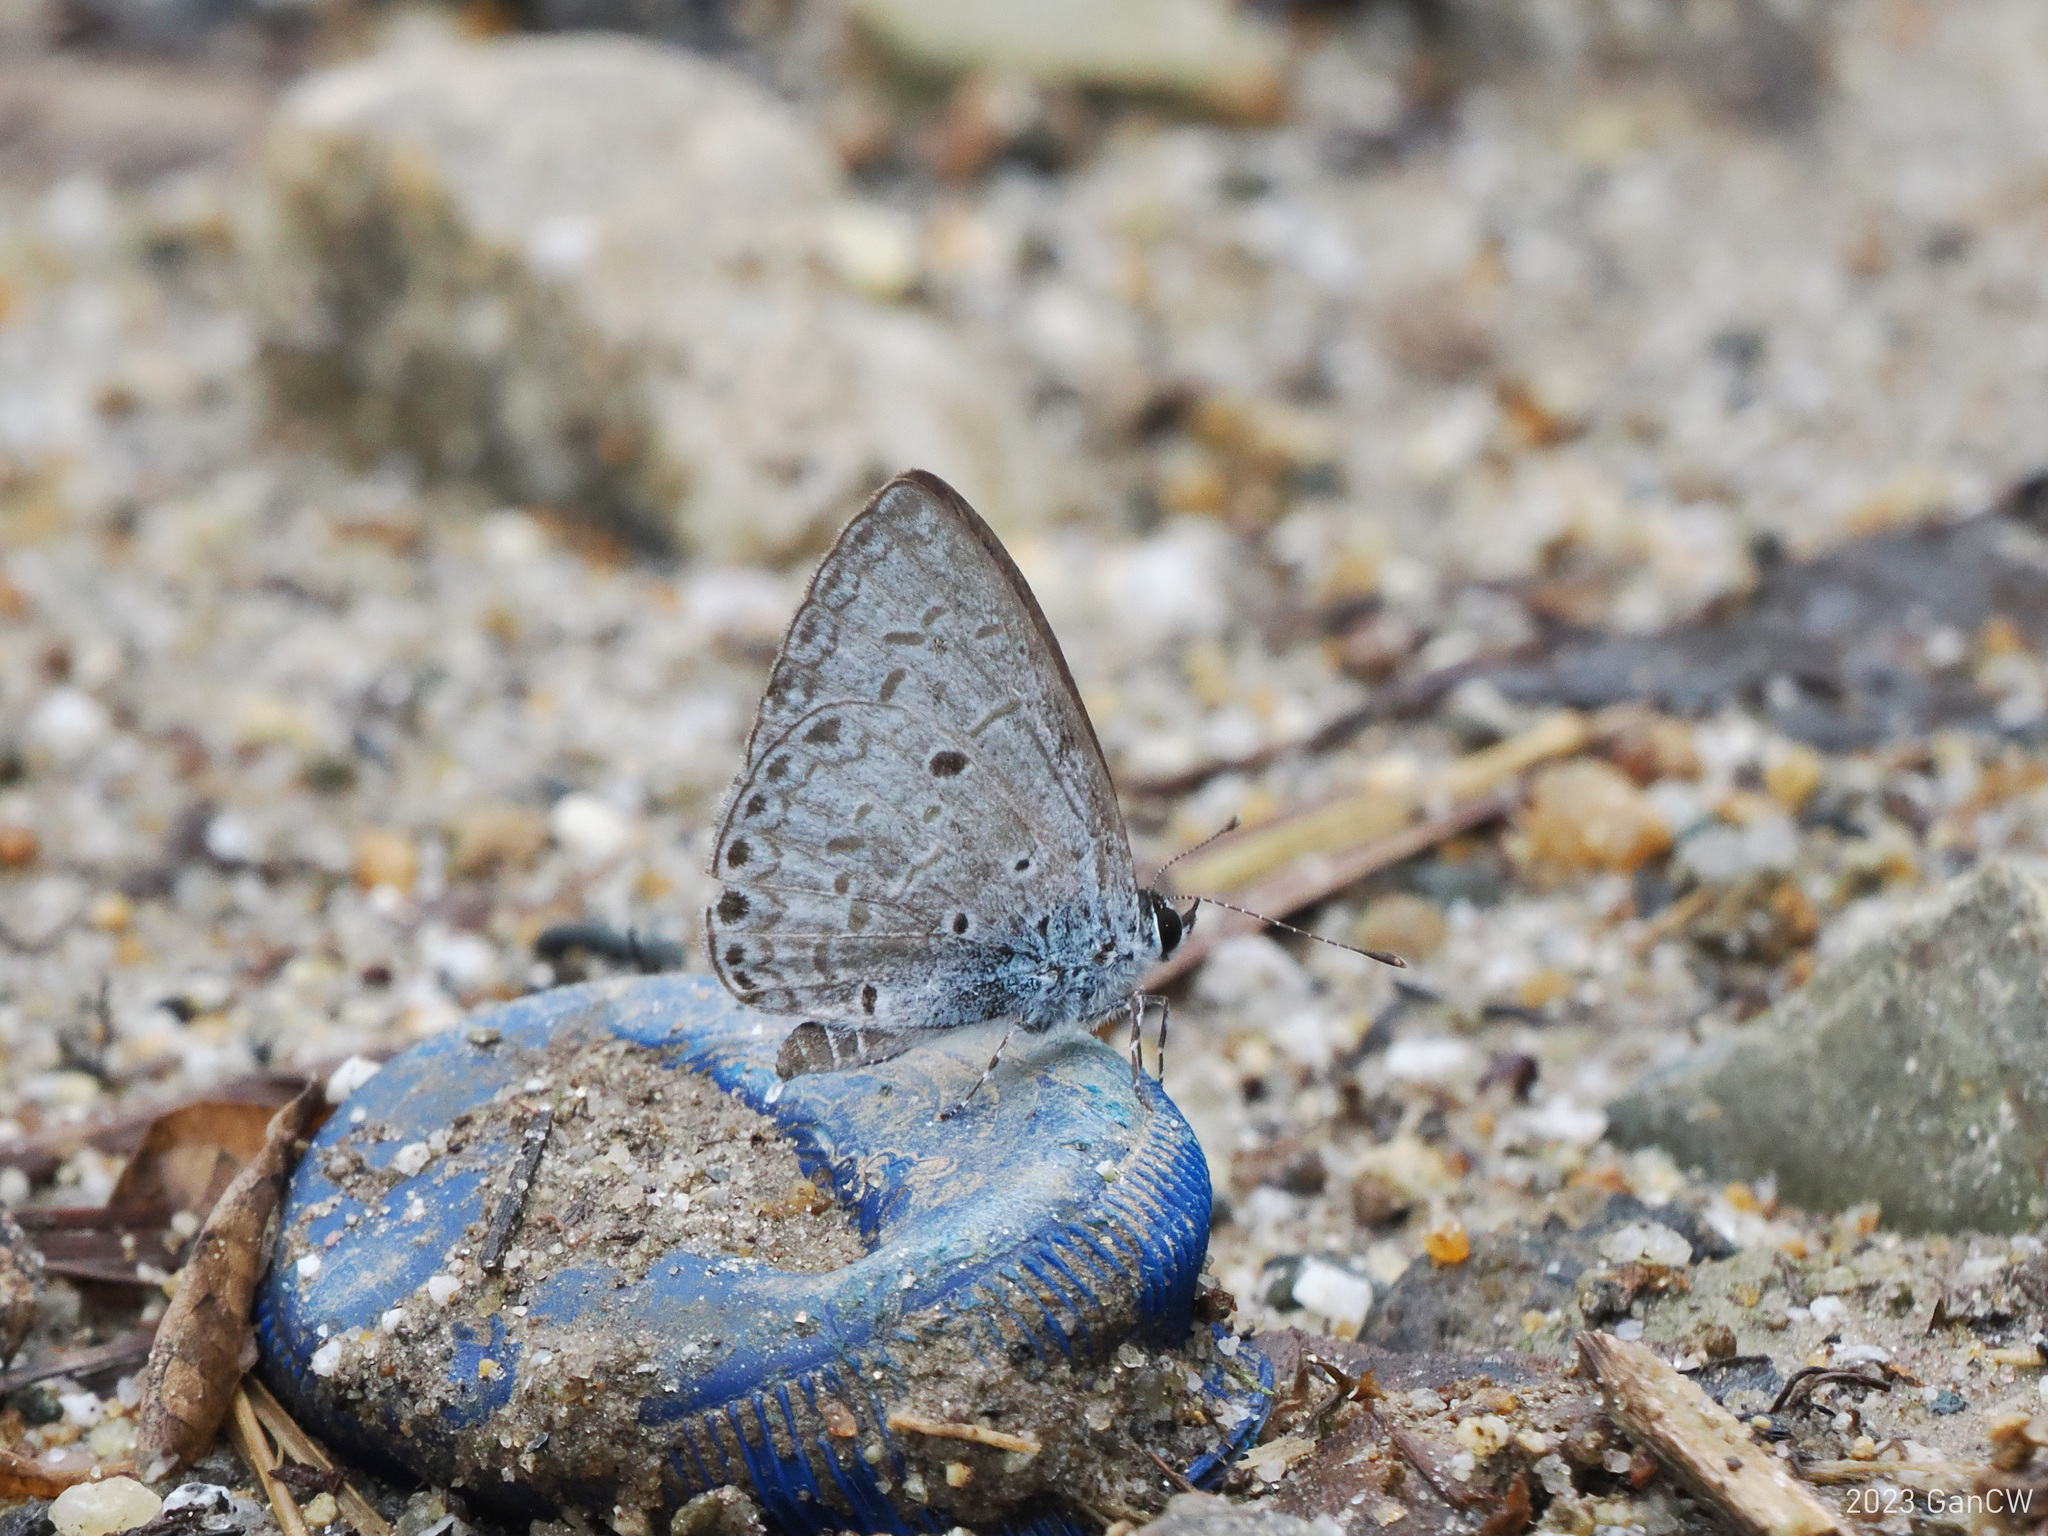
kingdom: Animalia
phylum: Arthropoda
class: Insecta
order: Lepidoptera
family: Lycaenidae
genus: Acytolepis
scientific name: Acytolepis
